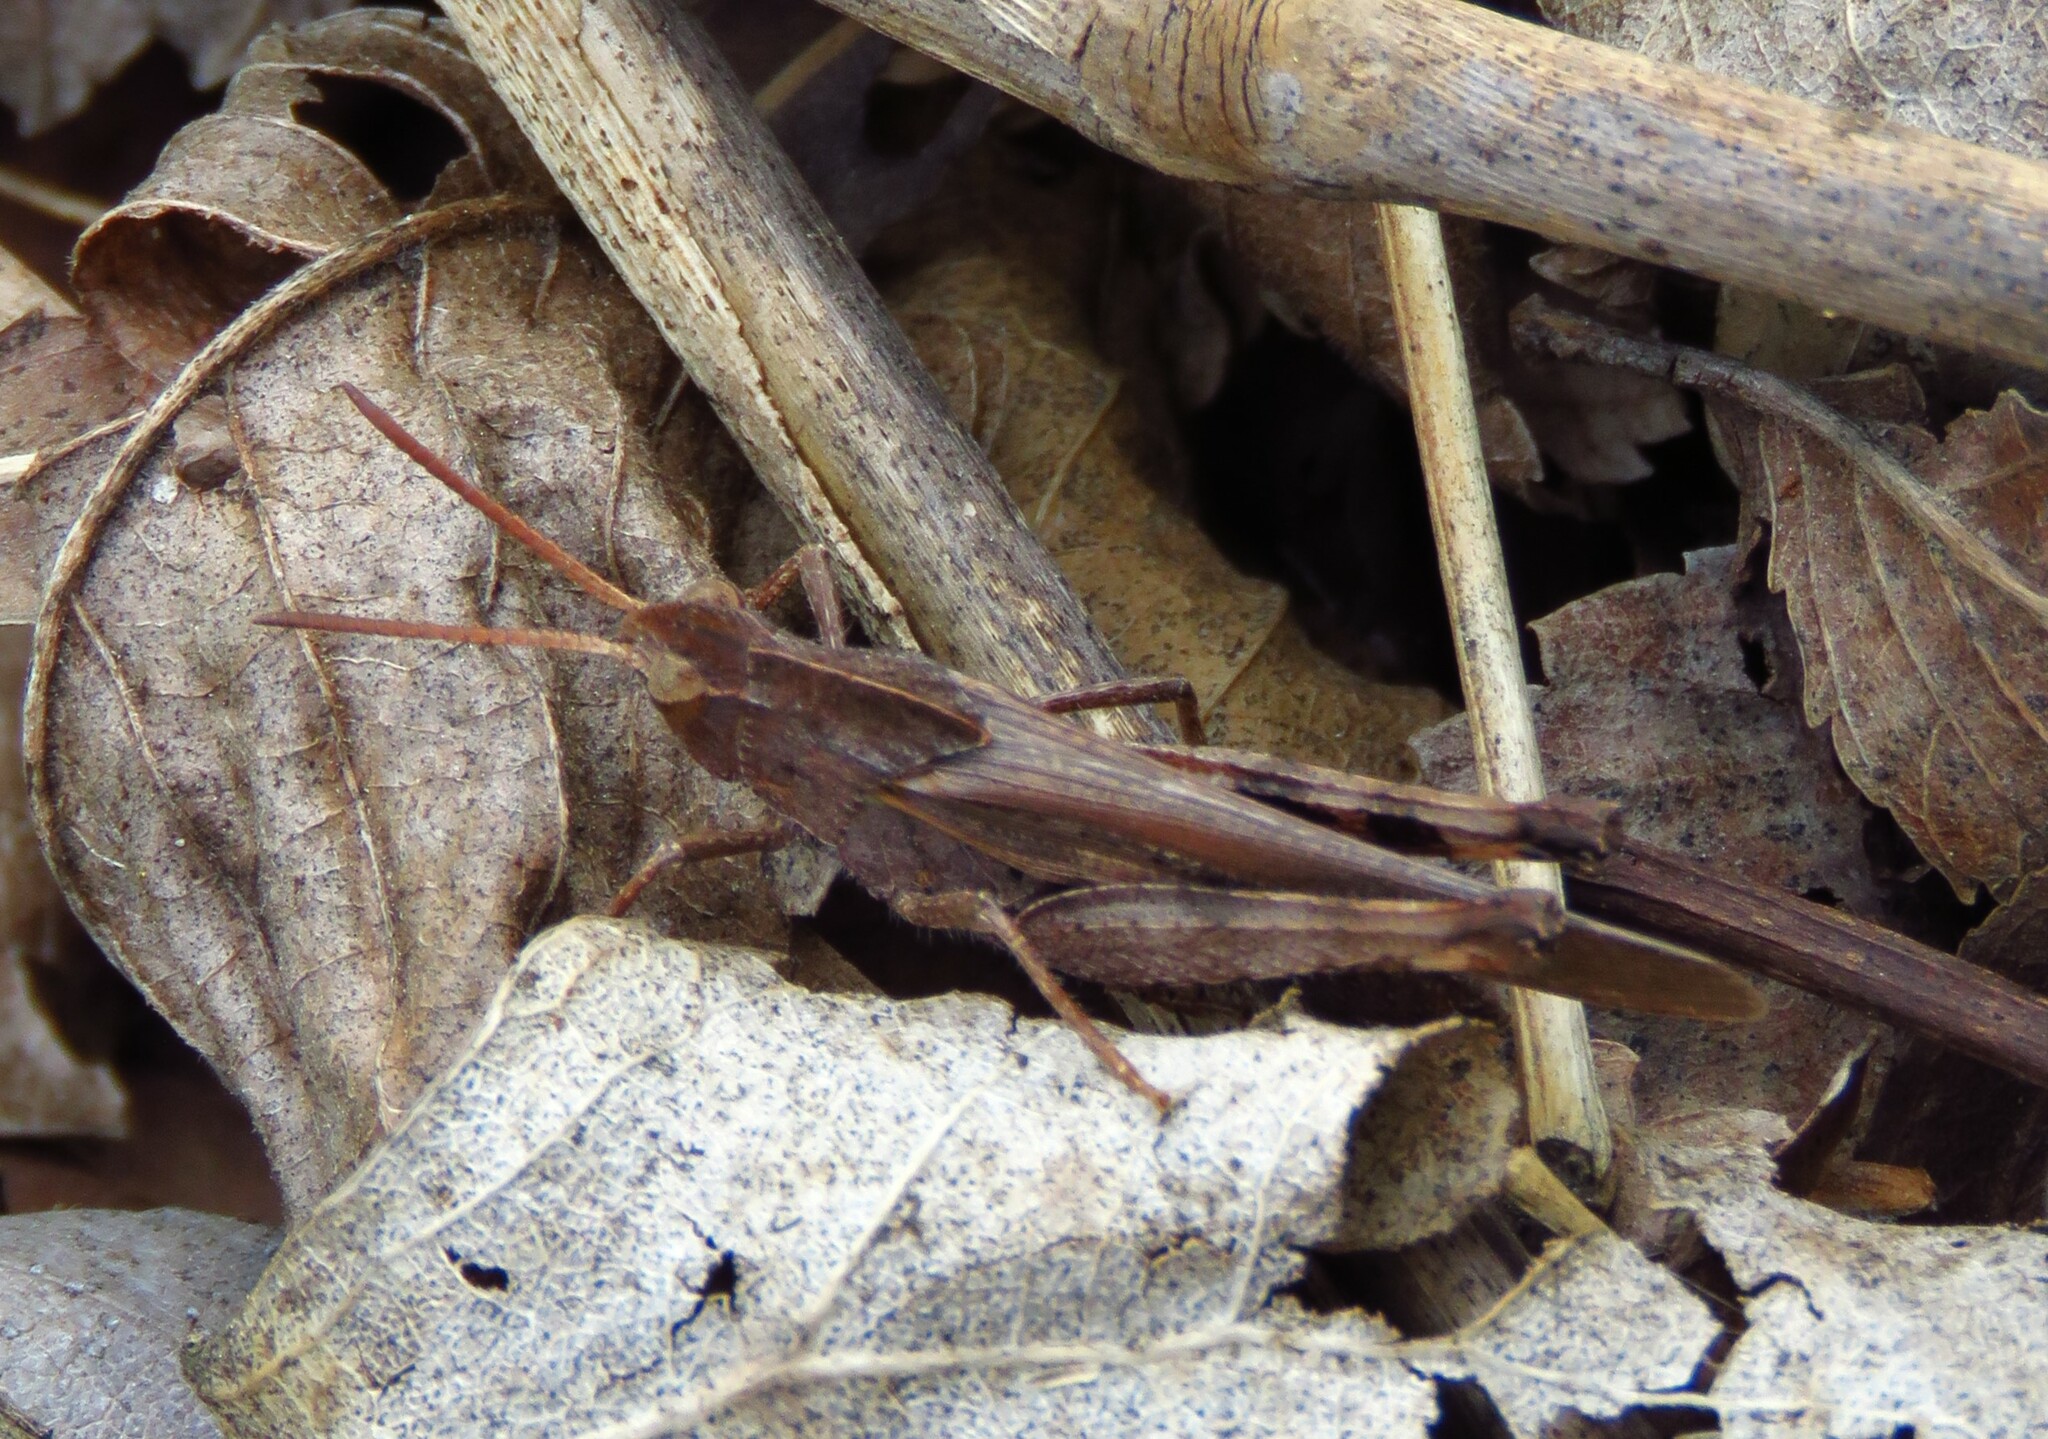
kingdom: Animalia
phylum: Arthropoda
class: Insecta
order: Orthoptera
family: Acrididae
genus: Chortophaga
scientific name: Chortophaga viridifasciata
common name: Green-striped grasshopper
